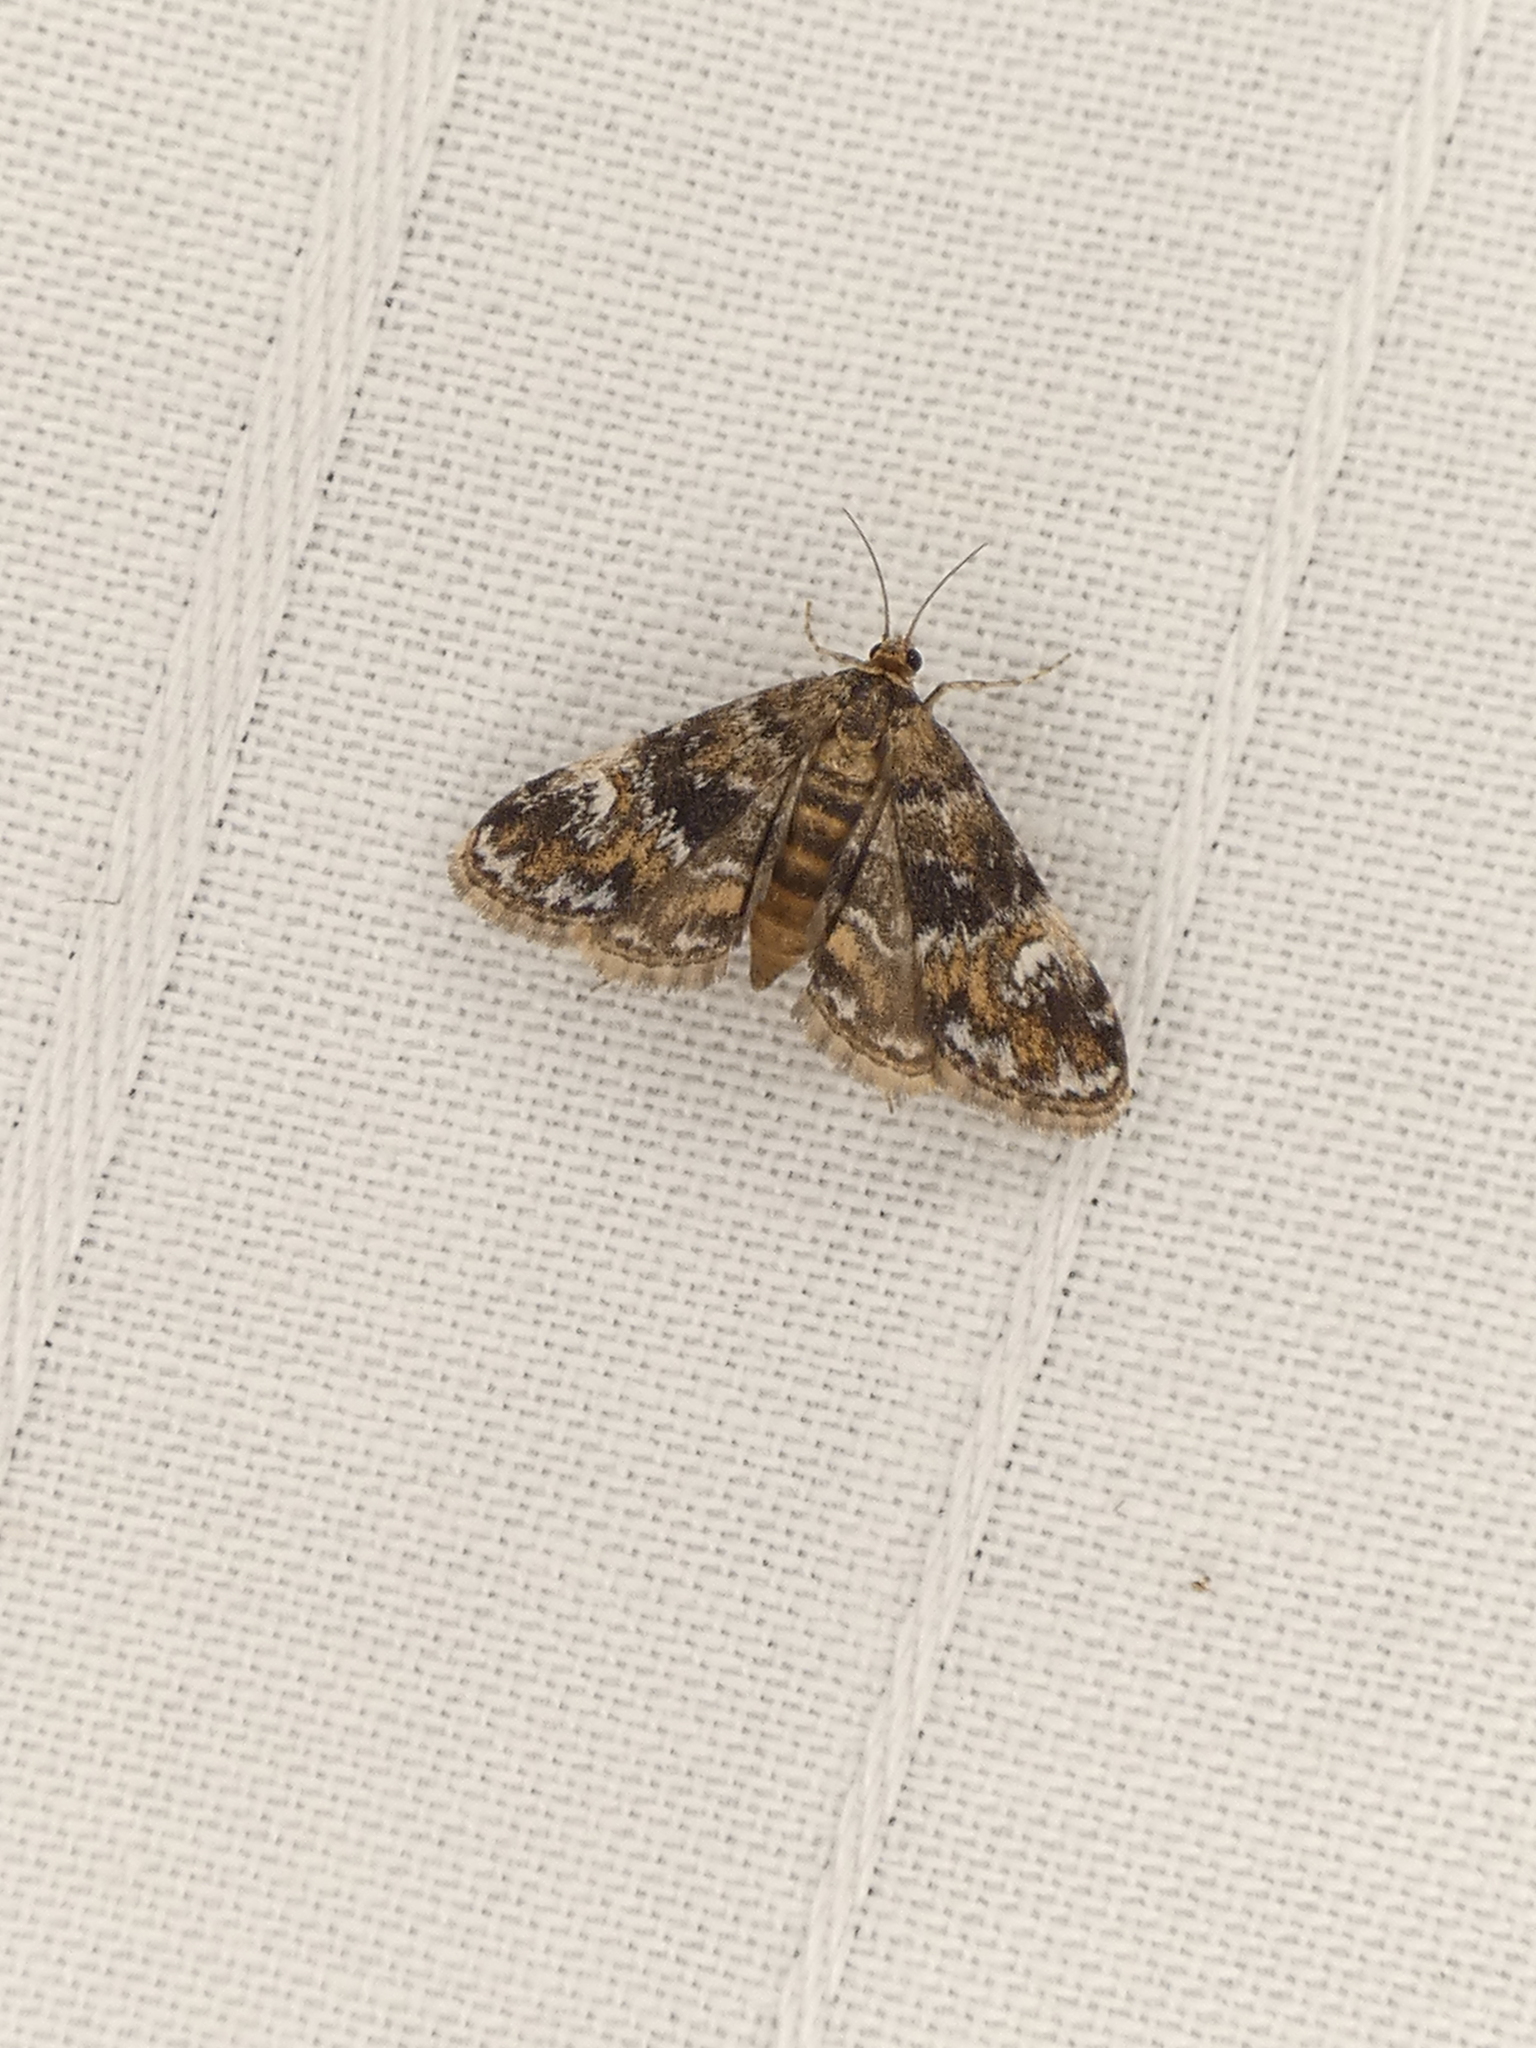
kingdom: Animalia
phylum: Arthropoda
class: Insecta
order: Lepidoptera
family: Crambidae
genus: Elophila
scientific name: Elophila obliteralis
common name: Waterlily leafcutter moth
